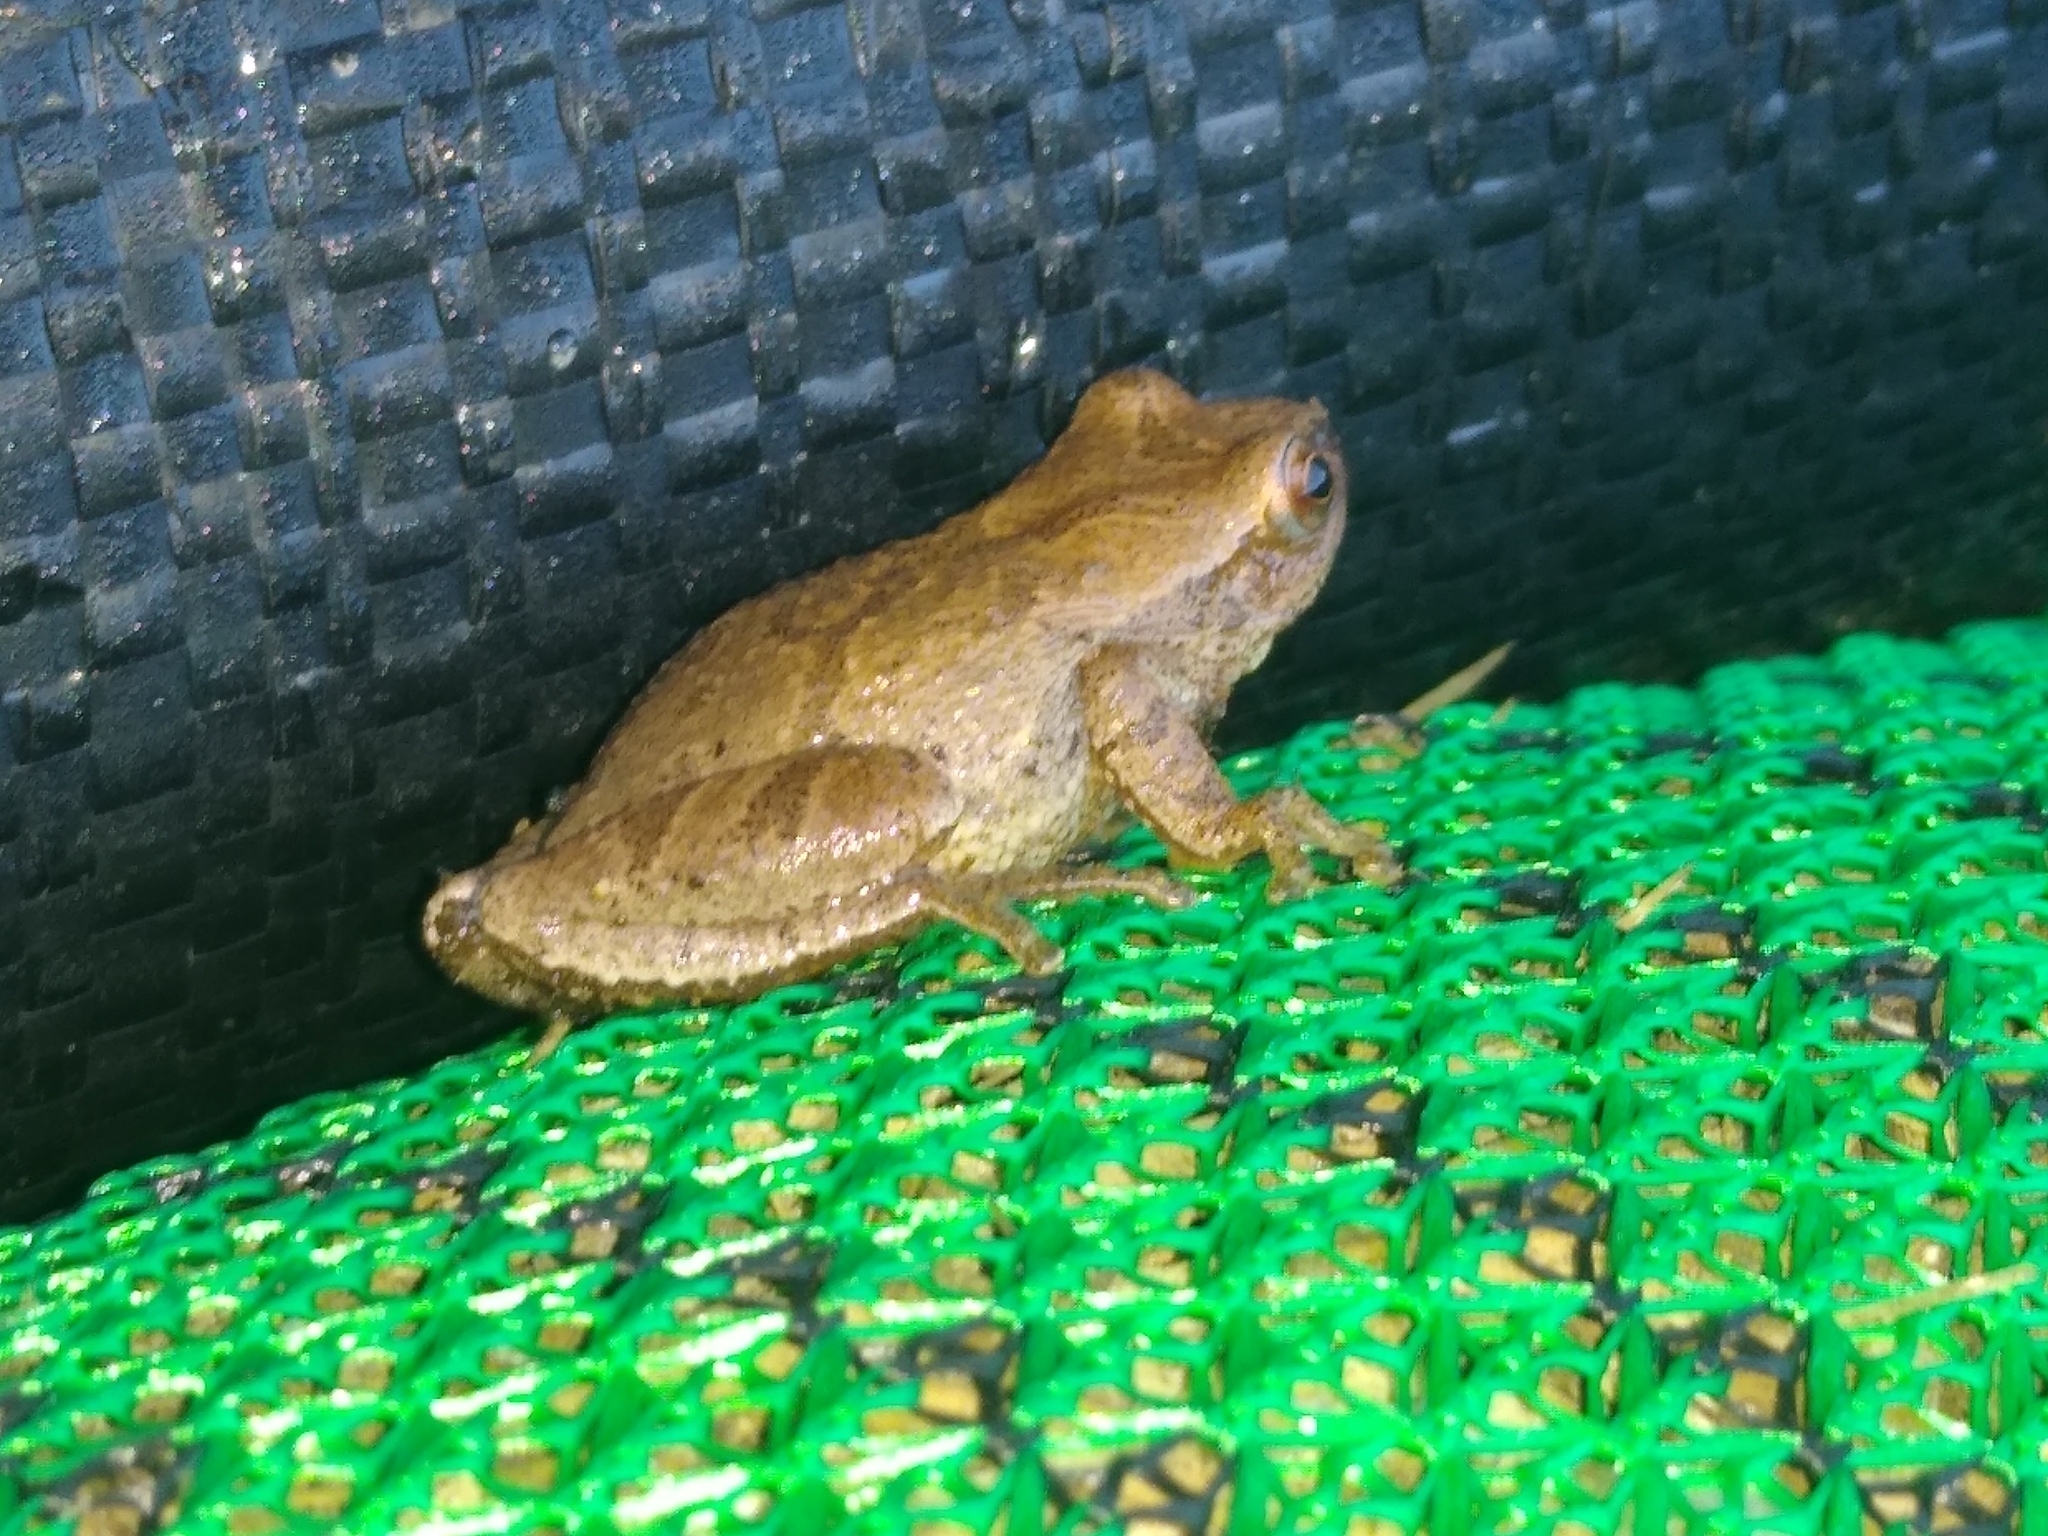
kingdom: Animalia
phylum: Chordata
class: Amphibia
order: Anura
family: Hylidae
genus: Pseudacris
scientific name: Pseudacris crucifer
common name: Spring peeper
